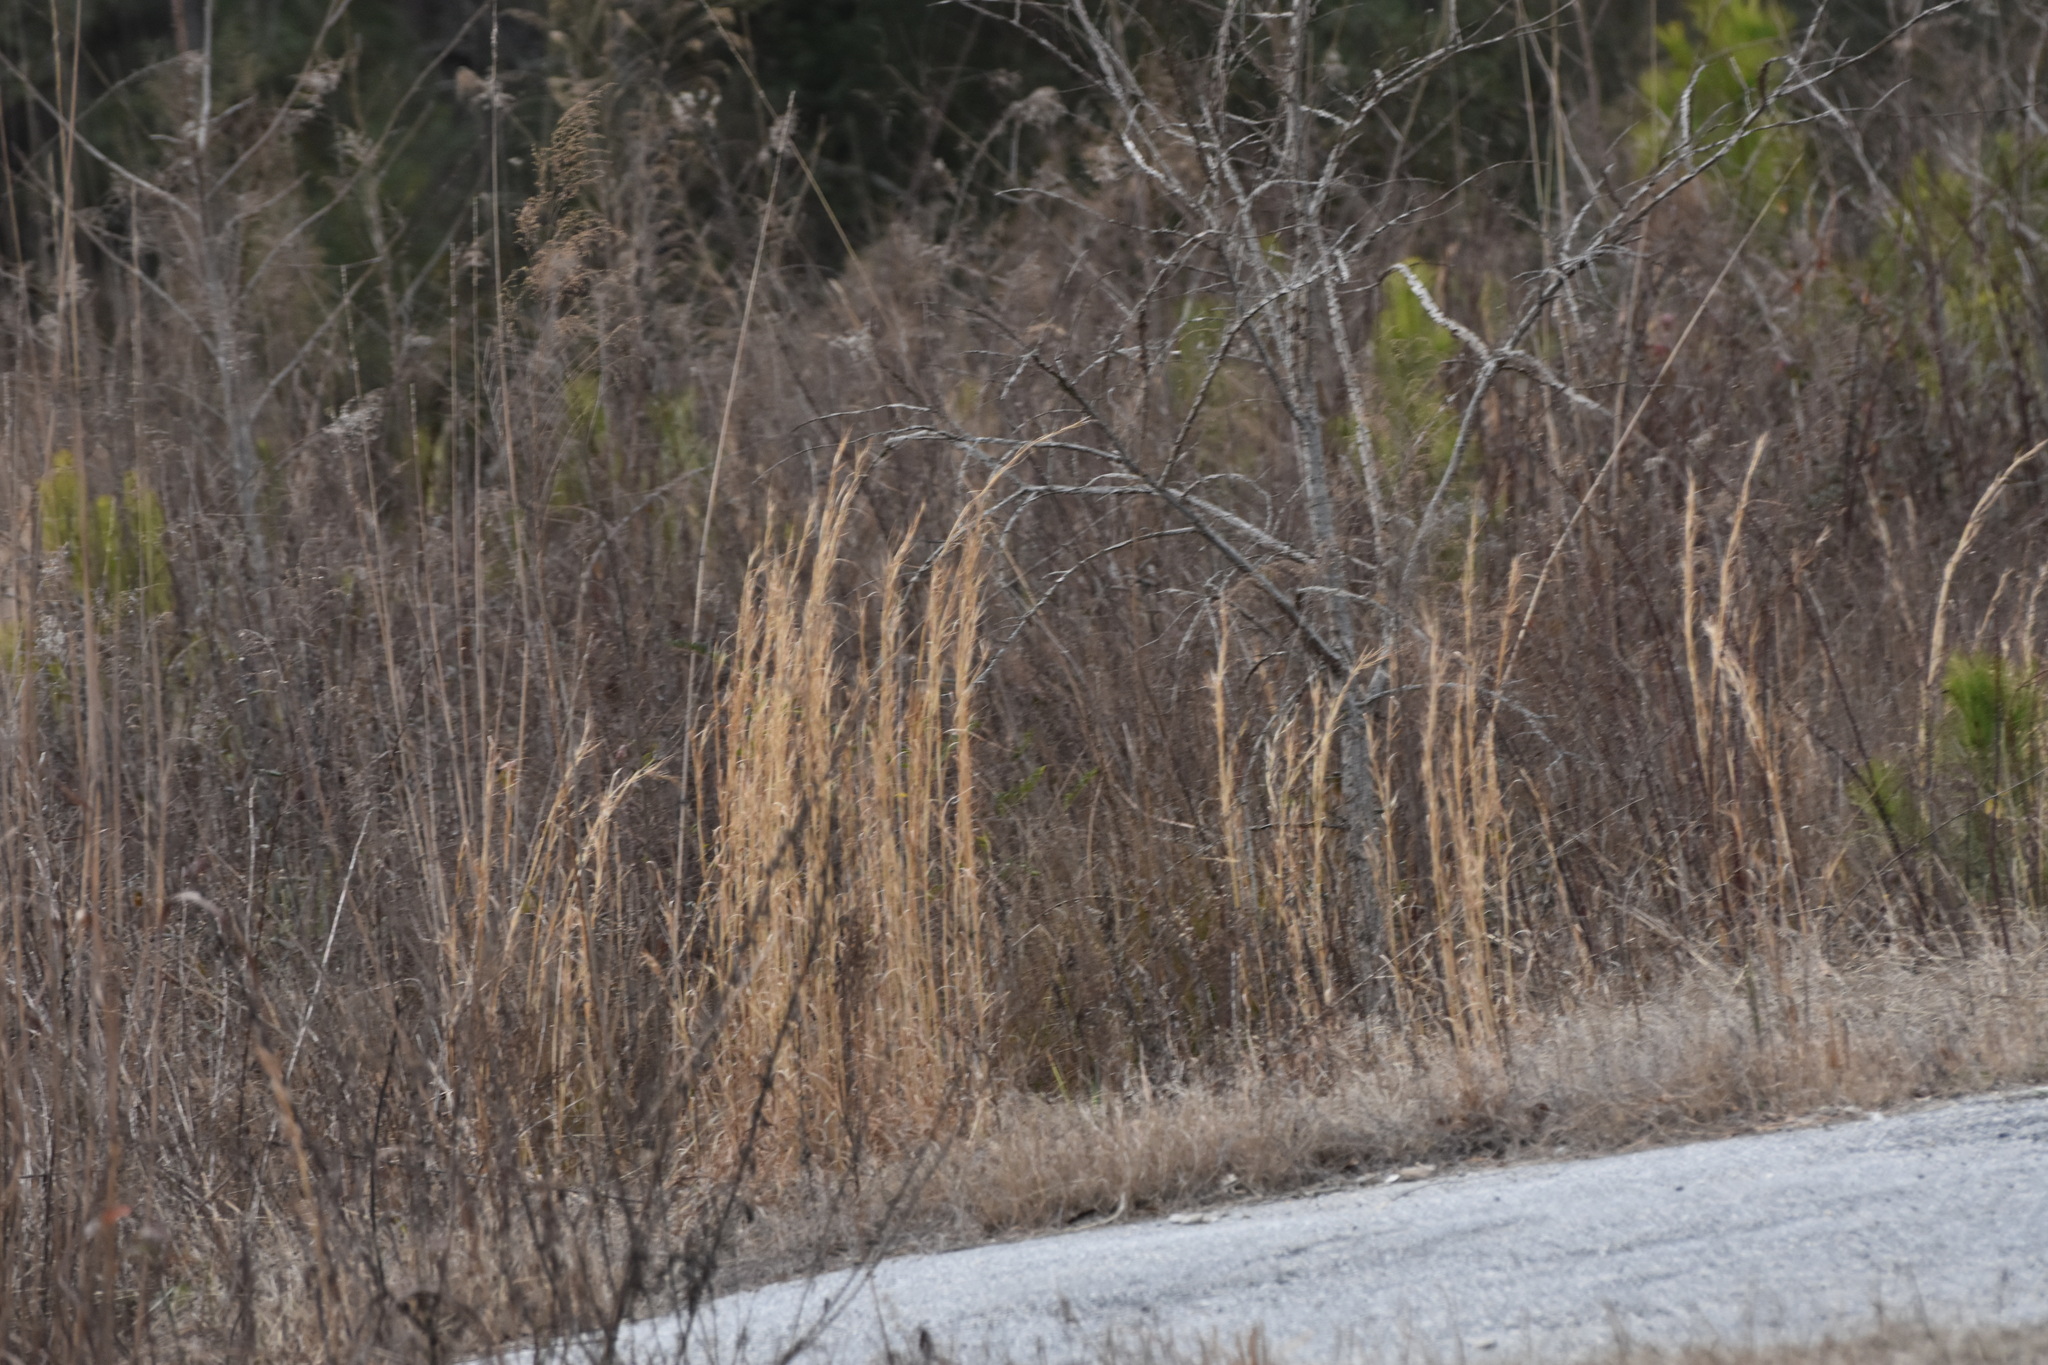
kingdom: Plantae
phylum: Tracheophyta
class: Liliopsida
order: Poales
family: Poaceae
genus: Andropogon
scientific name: Andropogon virginicus
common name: Broomsedge bluestem
